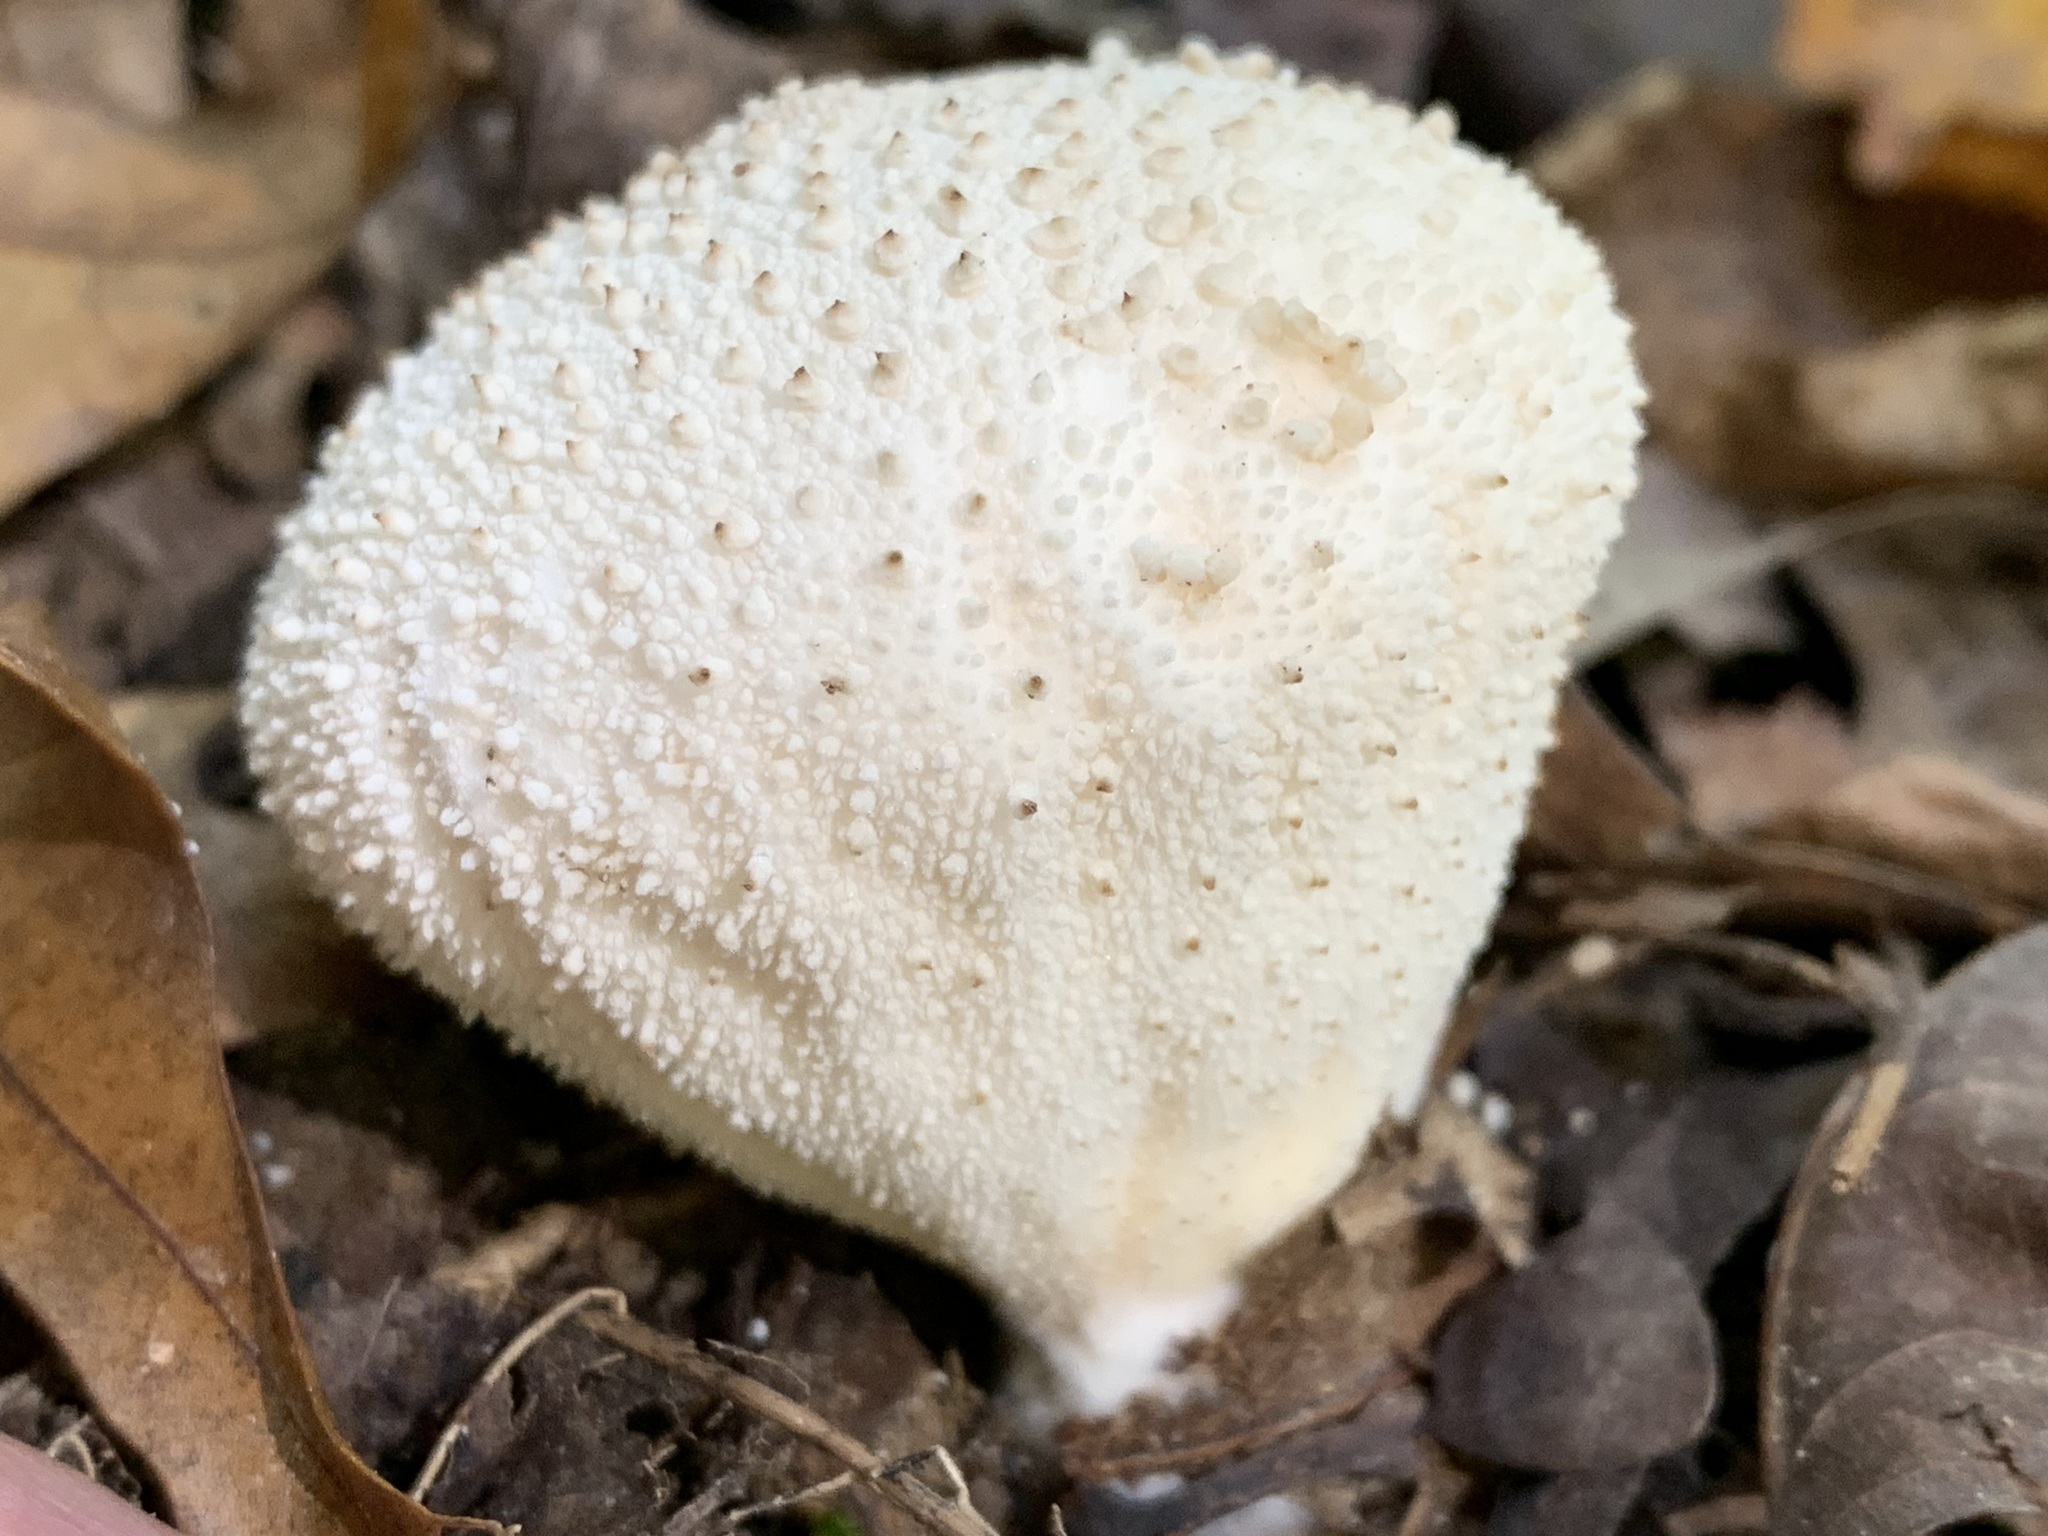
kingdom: Fungi
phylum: Basidiomycota
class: Agaricomycetes
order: Agaricales
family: Lycoperdaceae
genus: Lycoperdon
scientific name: Lycoperdon perlatum
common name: Common puffball
